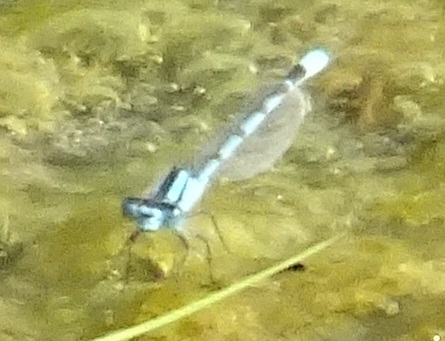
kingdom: Animalia
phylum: Arthropoda
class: Insecta
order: Odonata
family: Coenagrionidae
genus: Enallagma
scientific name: Enallagma cyathigerum
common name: Common blue damselfly
